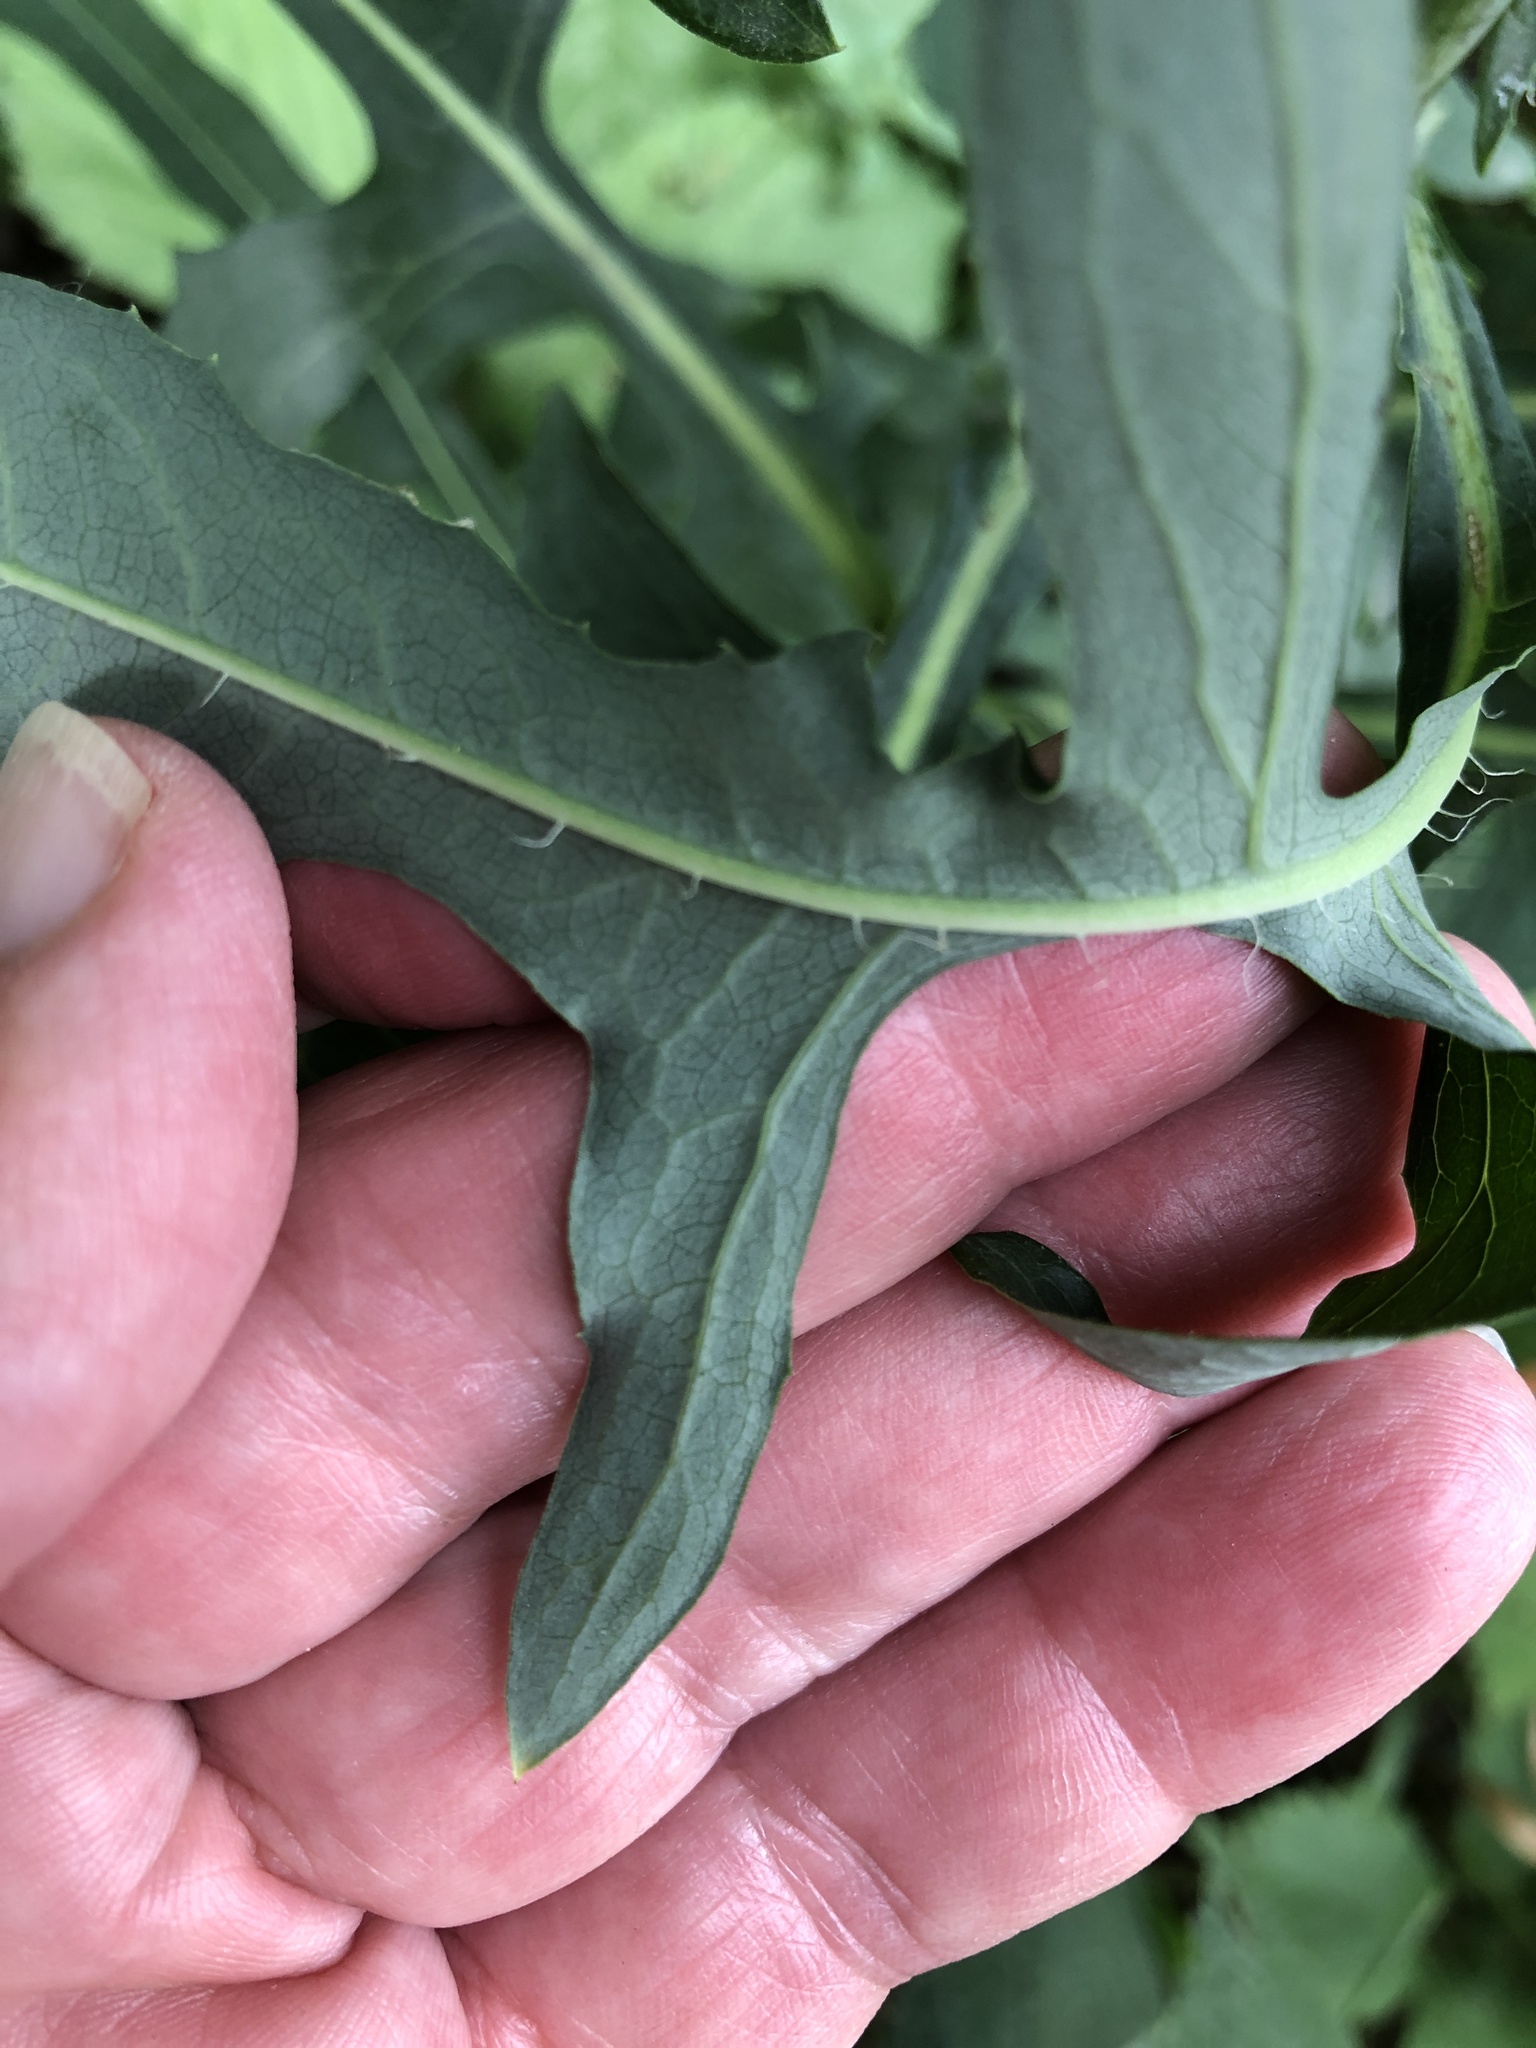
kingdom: Plantae
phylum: Tracheophyta
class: Magnoliopsida
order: Asterales
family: Asteraceae
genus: Lactuca
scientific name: Lactuca canadensis
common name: Canada lettuce
